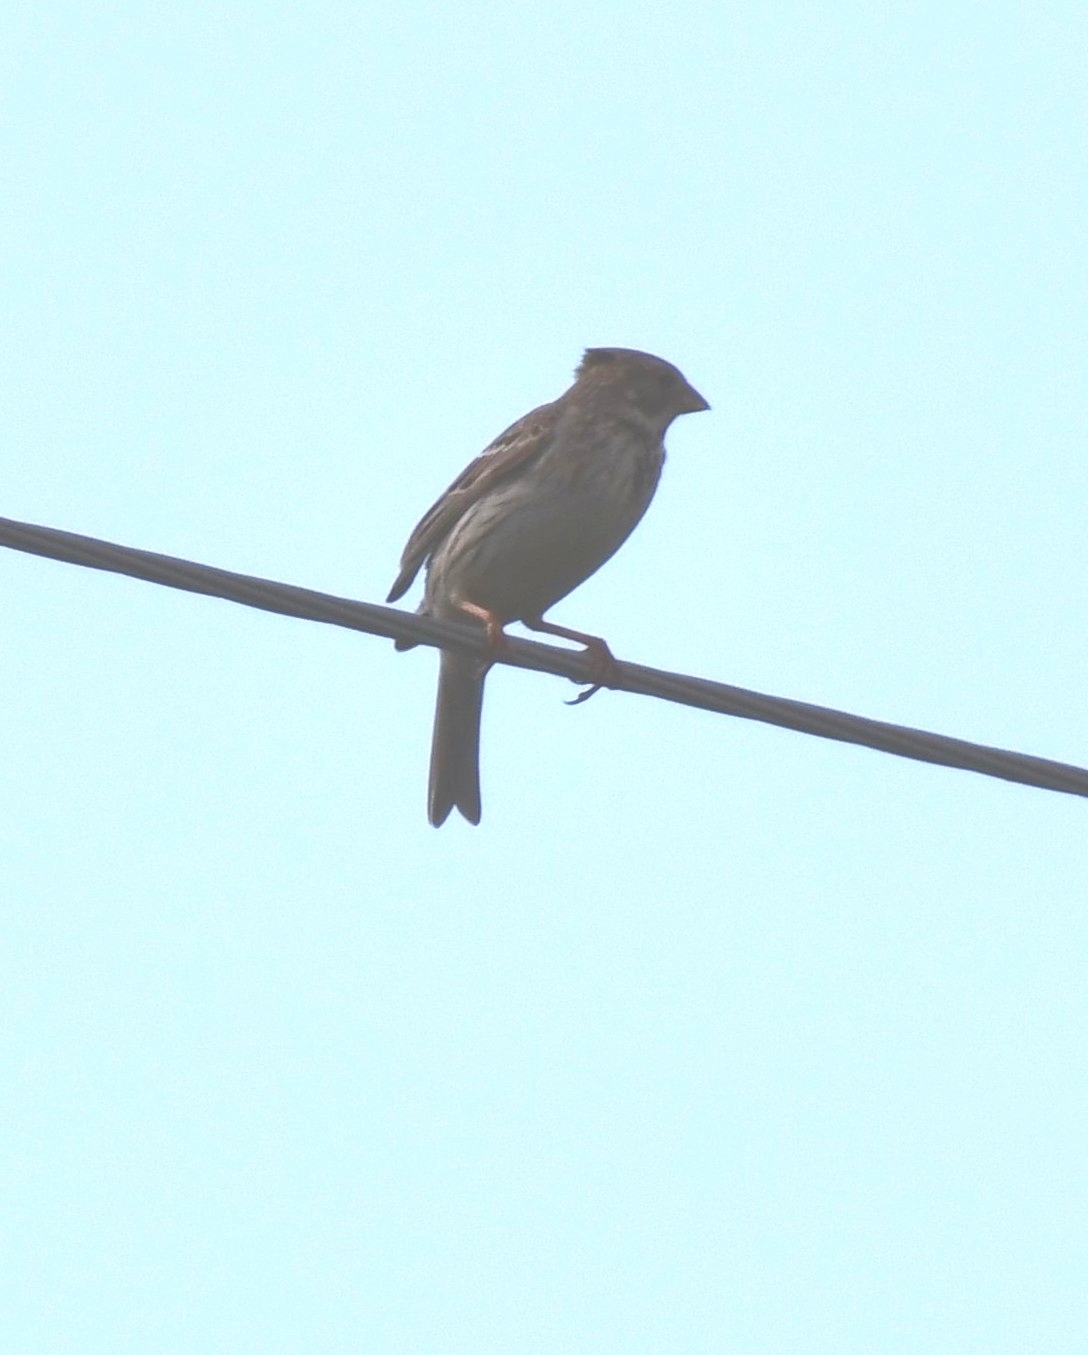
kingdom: Animalia
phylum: Chordata
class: Aves
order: Passeriformes
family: Emberizidae
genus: Emberiza
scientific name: Emberiza calandra
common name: Corn bunting
